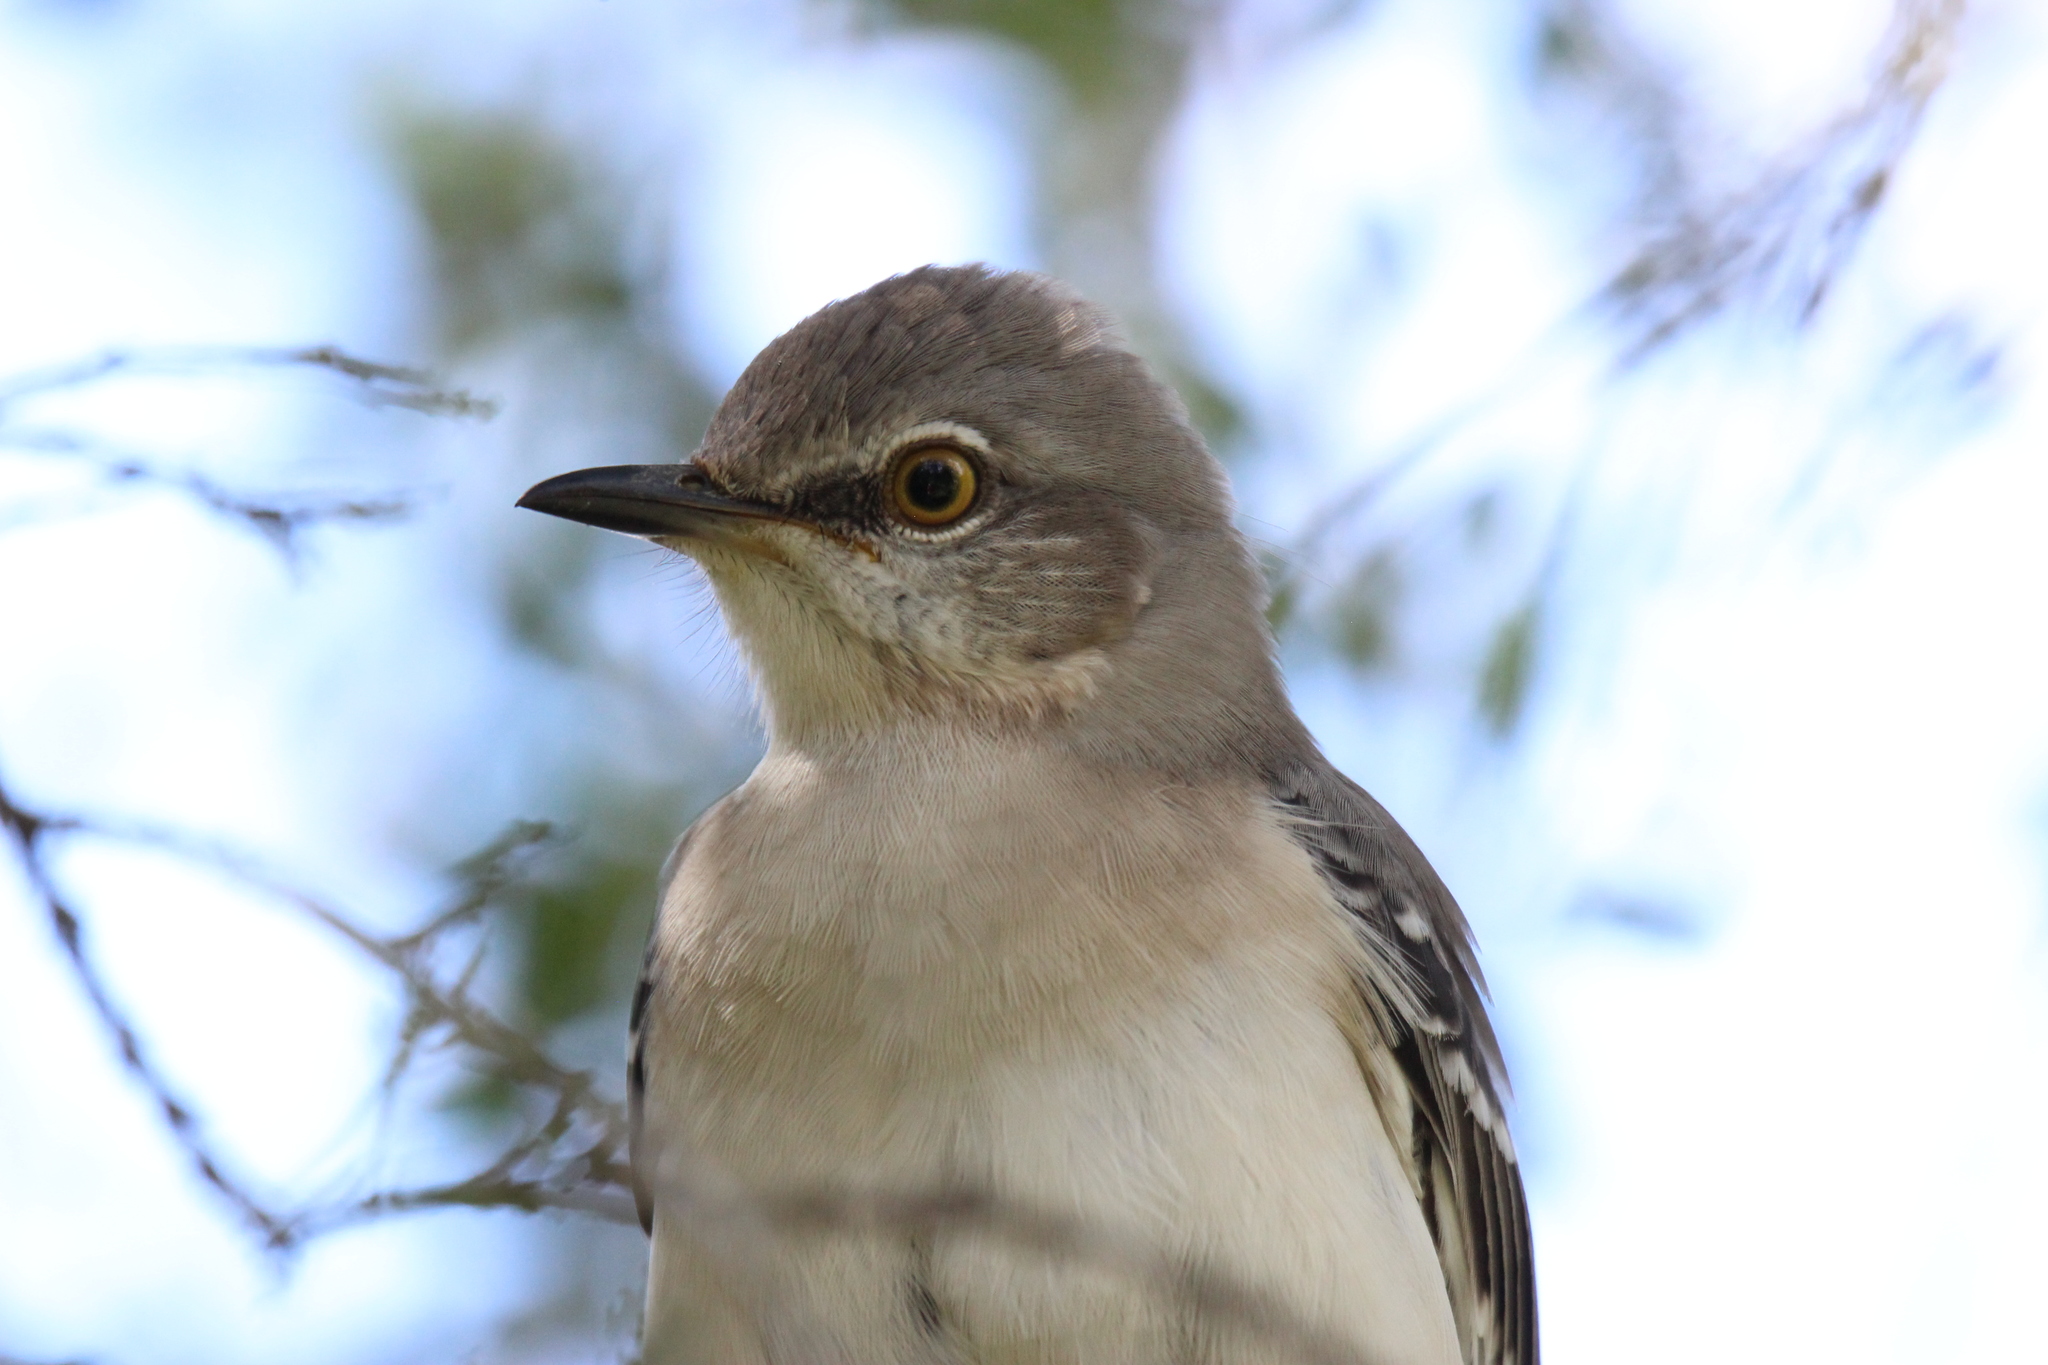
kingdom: Animalia
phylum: Chordata
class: Aves
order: Passeriformes
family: Mimidae
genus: Mimus
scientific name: Mimus polyglottos
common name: Northern mockingbird
